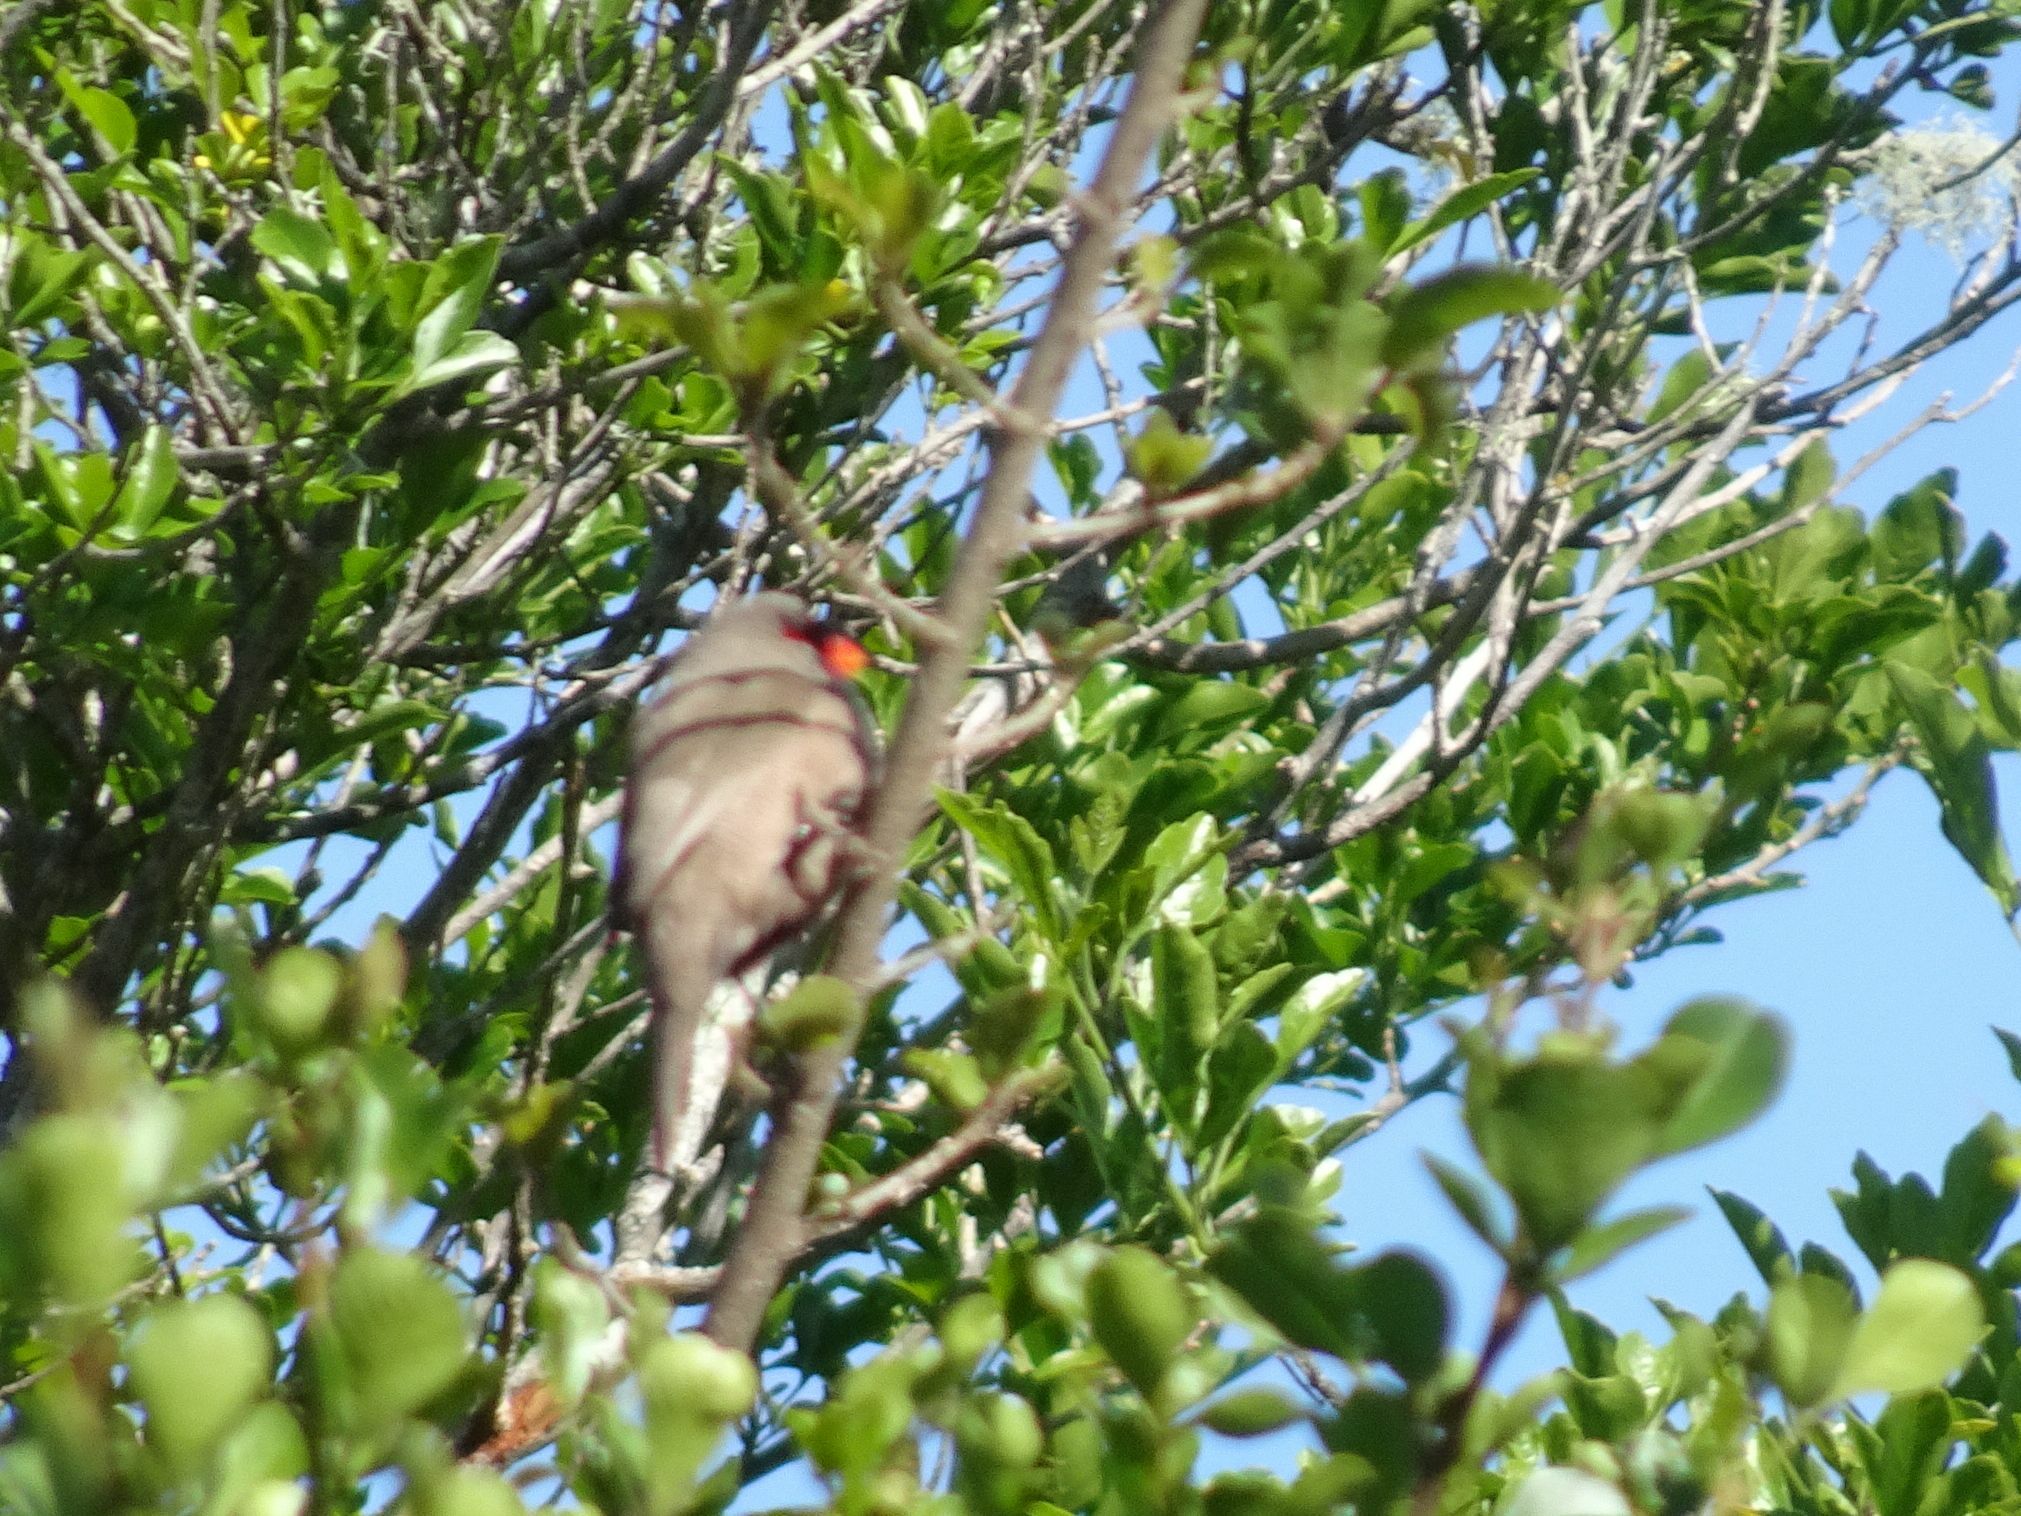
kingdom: Animalia
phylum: Chordata
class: Aves
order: Passeriformes
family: Estrildidae
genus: Estrilda
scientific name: Estrilda astrild
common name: Common waxbill
